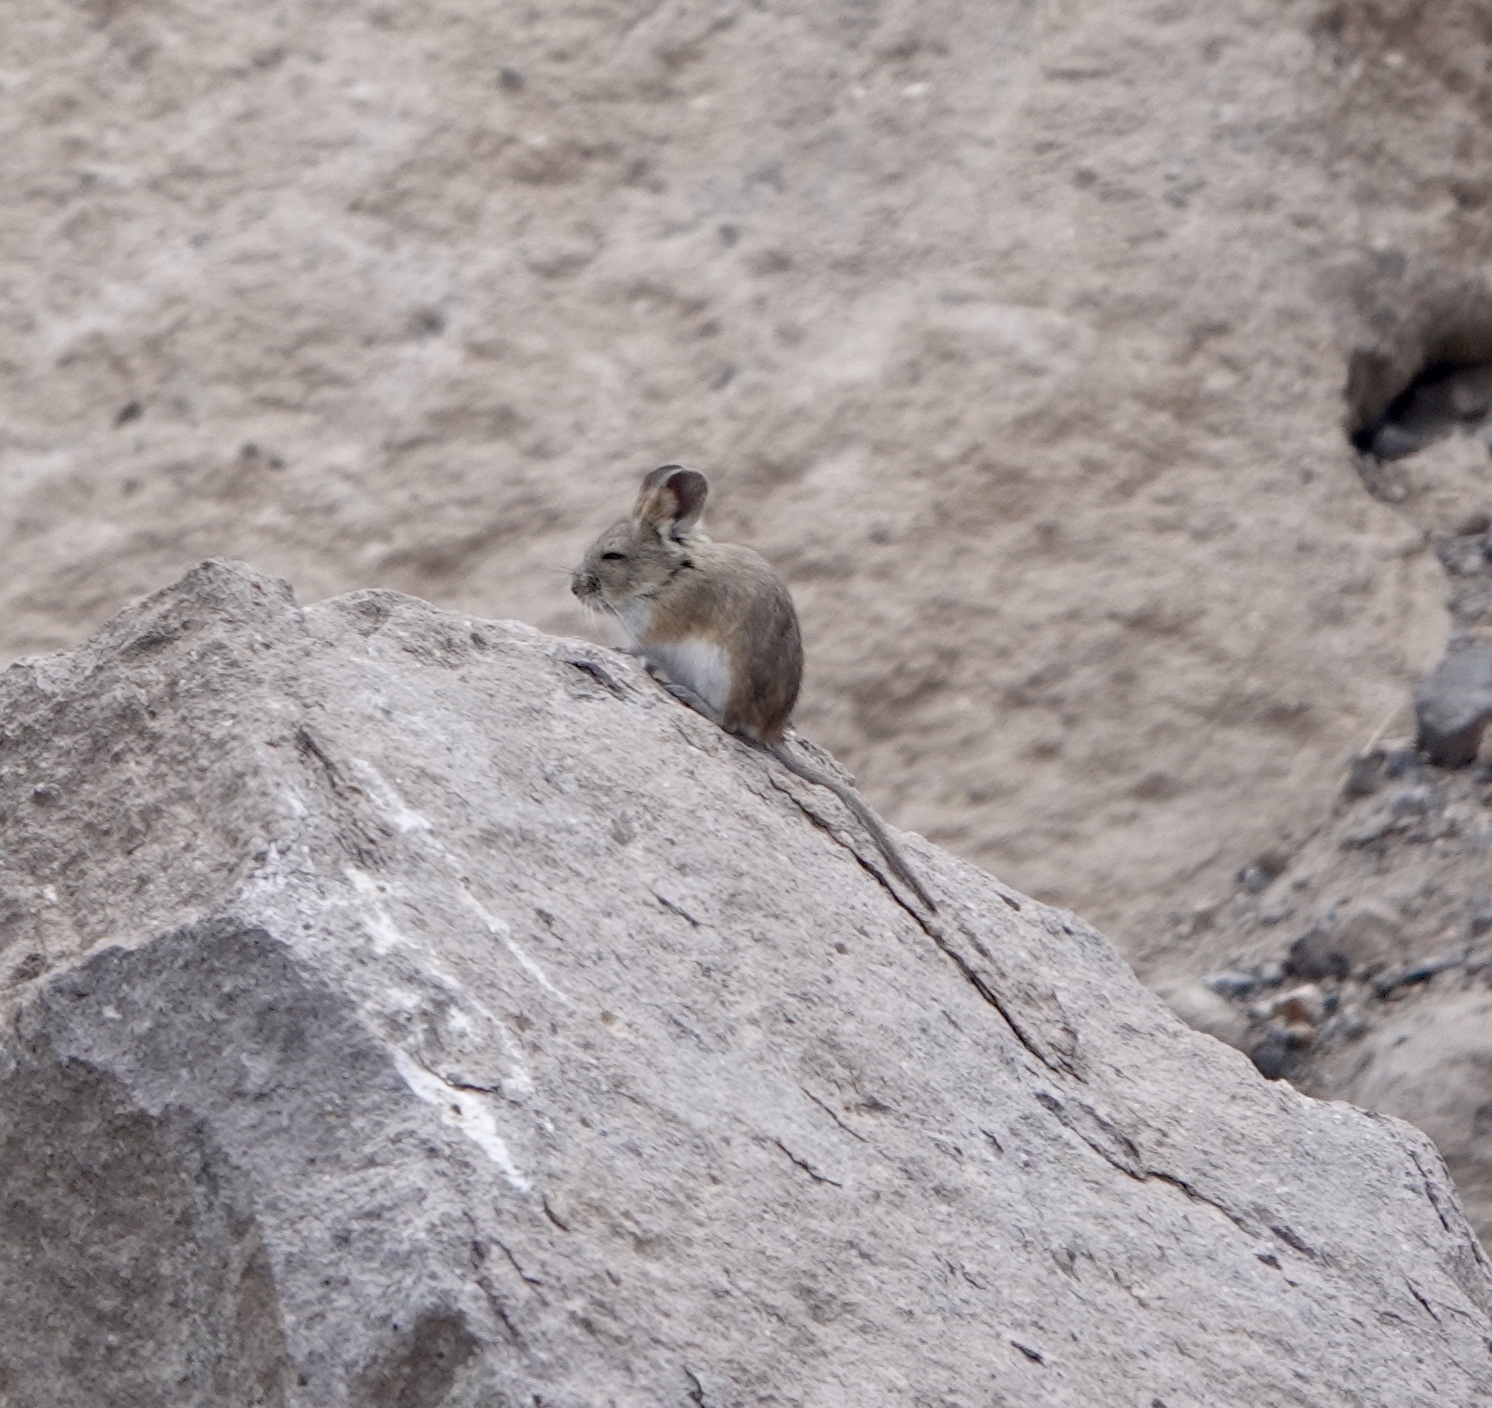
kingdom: Animalia
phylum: Chordata
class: Mammalia
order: Rodentia
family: Cricetidae
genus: Auliscomys
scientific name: Auliscomys boliviensis
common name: Bolivian pericote
